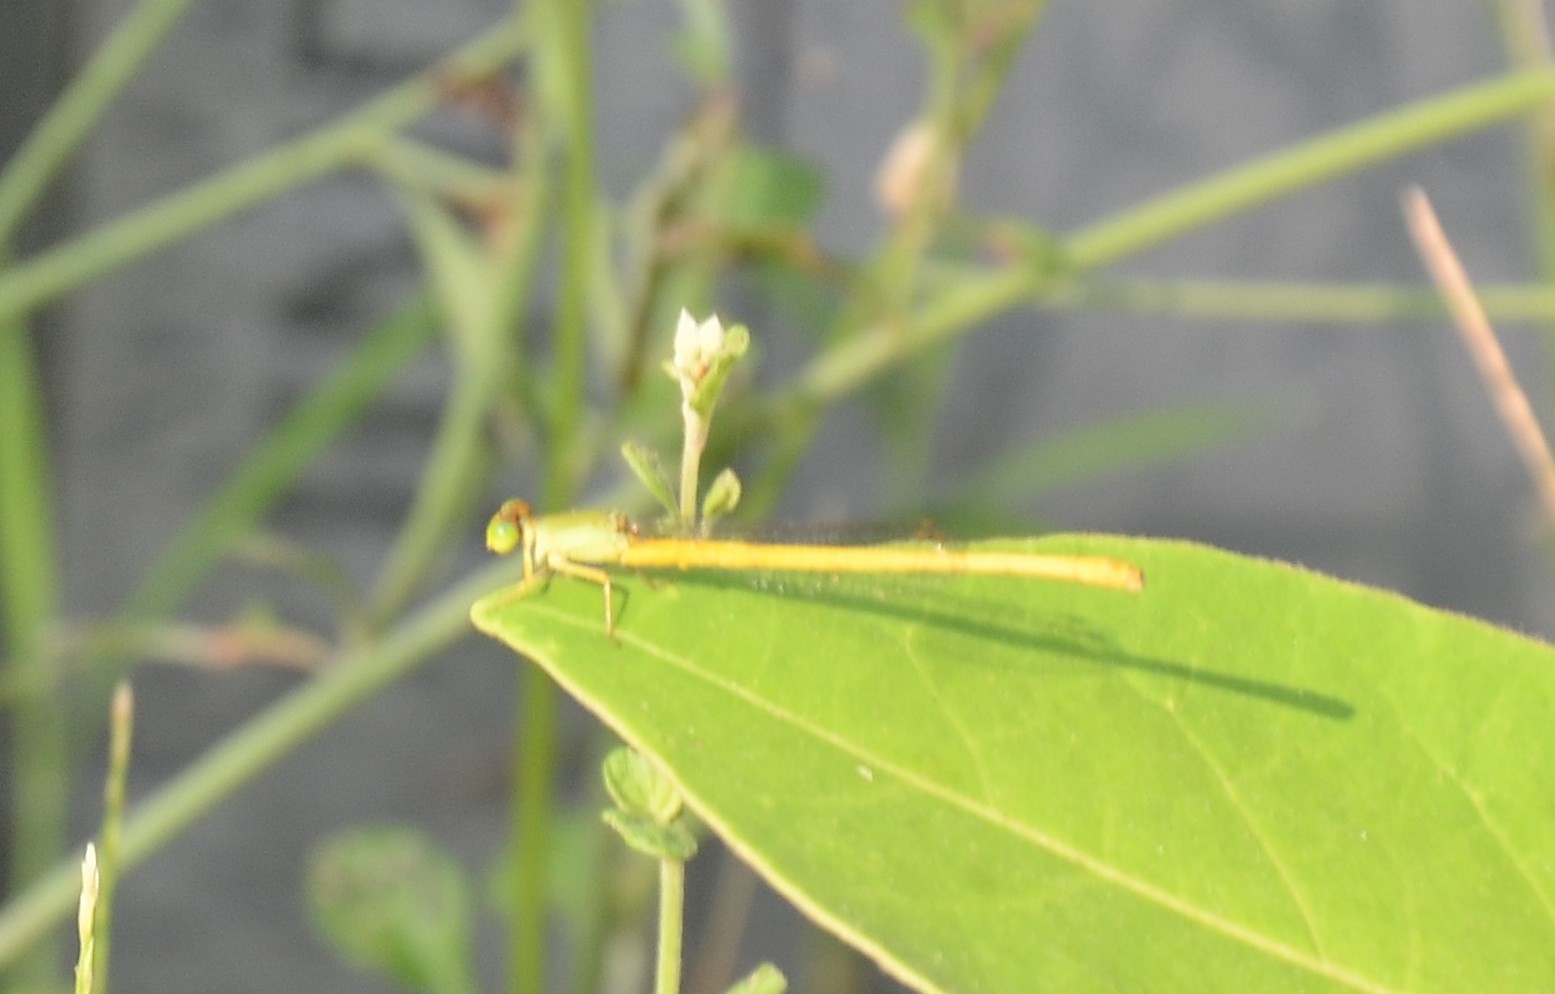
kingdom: Animalia
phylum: Arthropoda
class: Insecta
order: Odonata
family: Coenagrionidae
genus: Ceriagrion
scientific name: Ceriagrion coromandelianum
